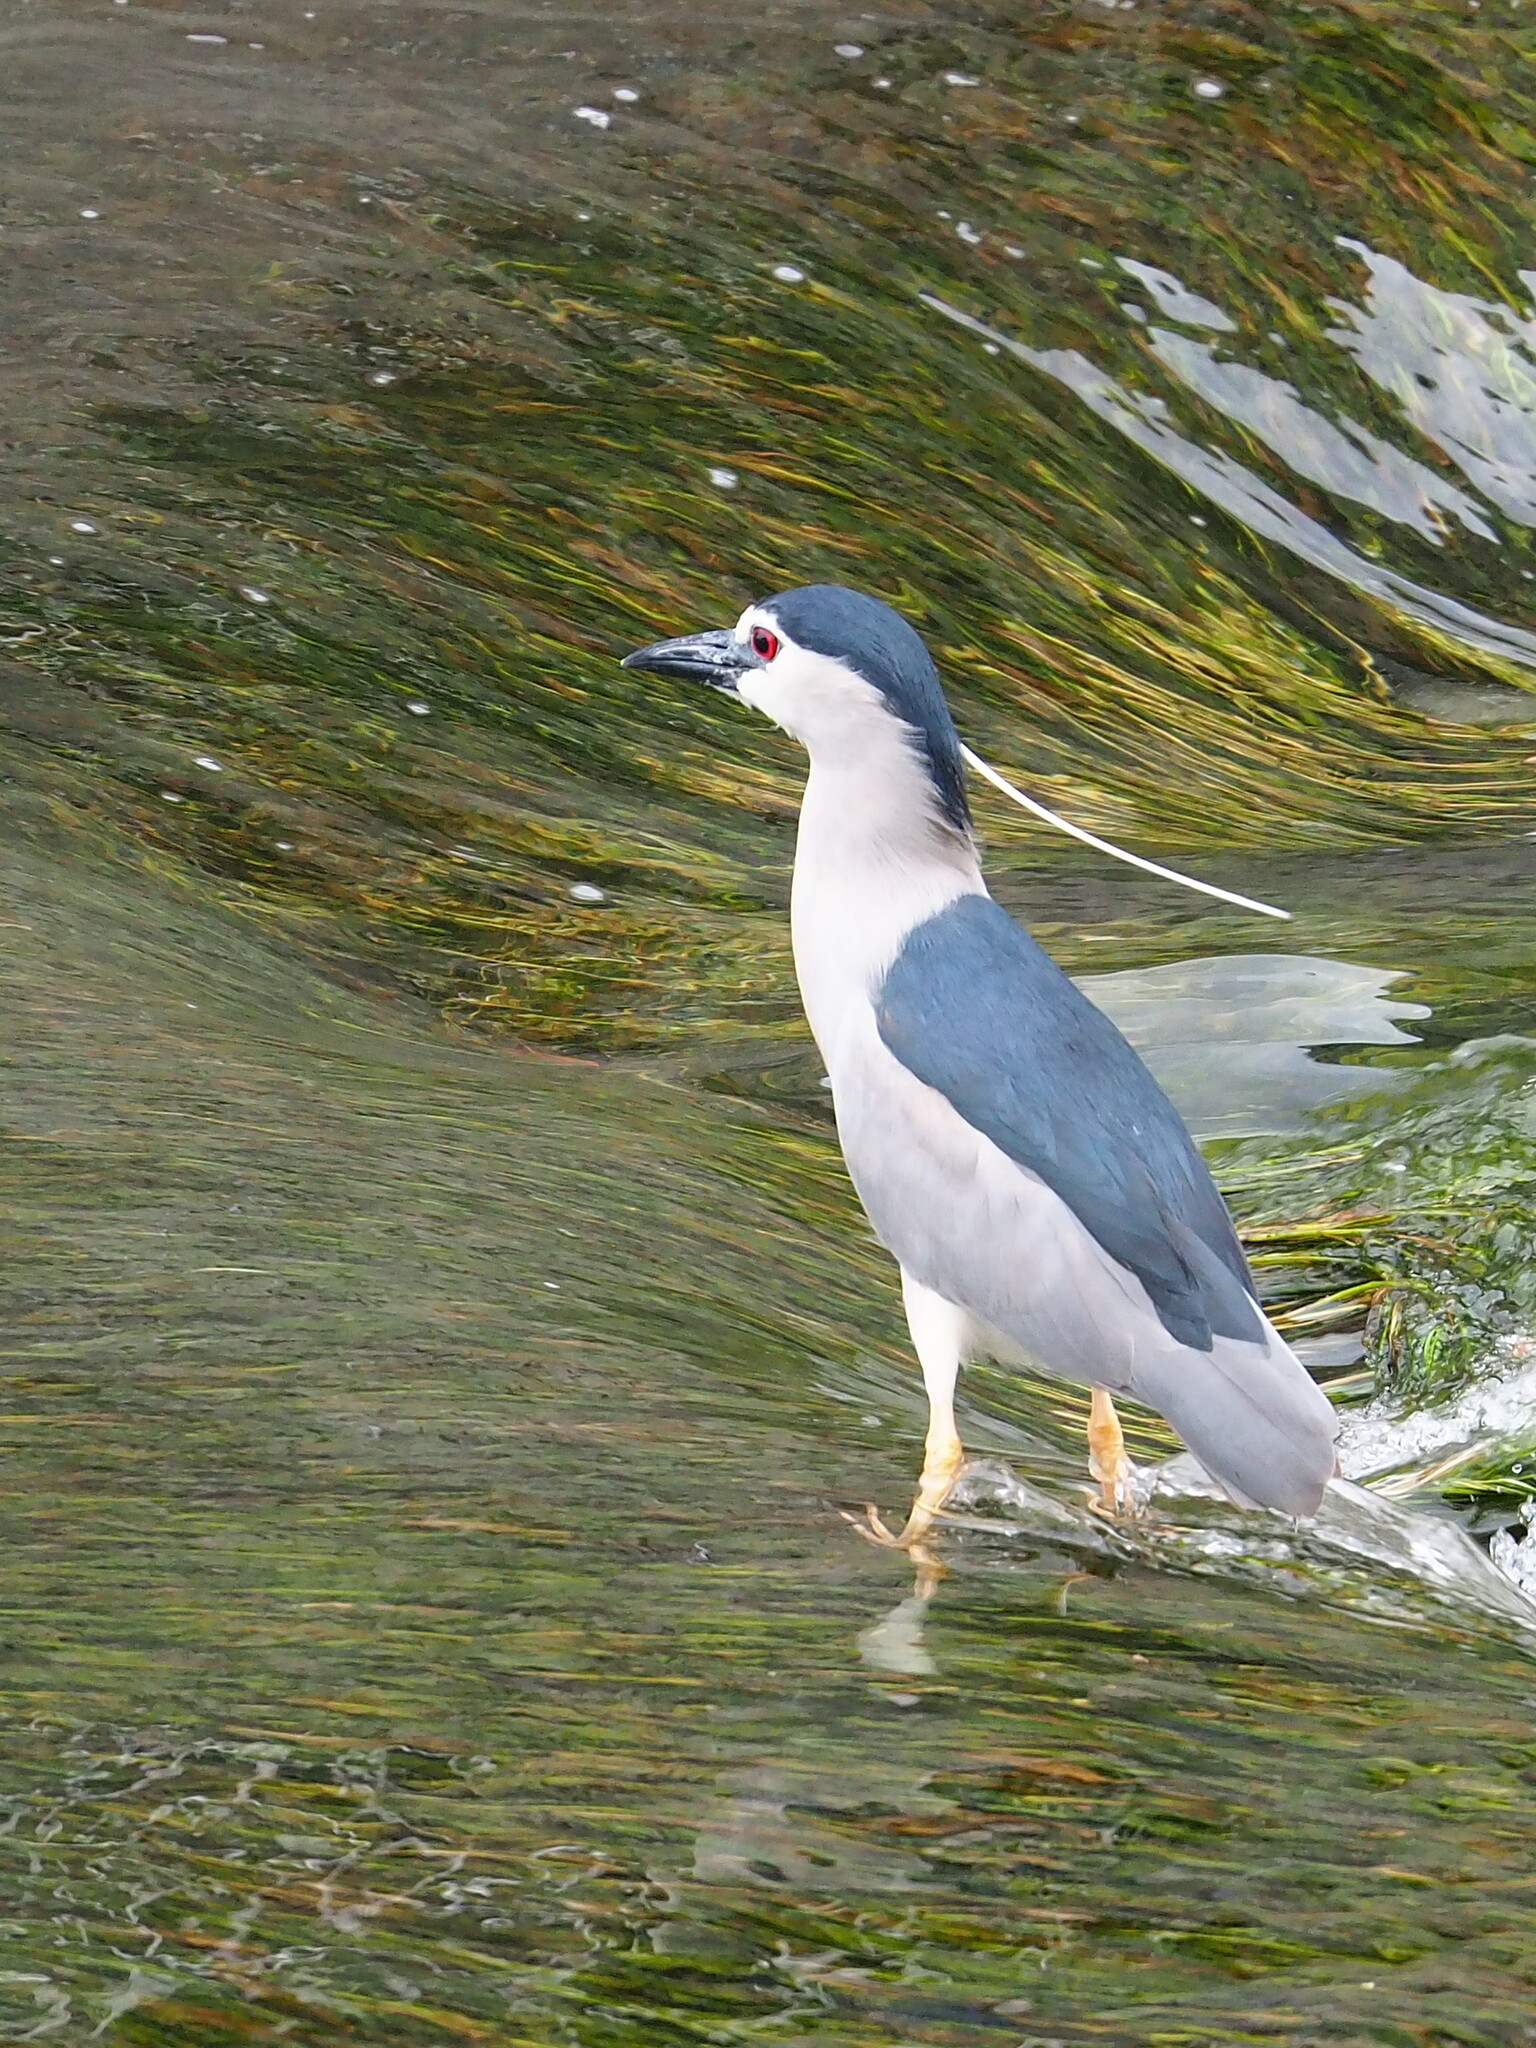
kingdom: Animalia
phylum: Chordata
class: Aves
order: Pelecaniformes
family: Ardeidae
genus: Nycticorax
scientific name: Nycticorax nycticorax
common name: Black-crowned night heron
